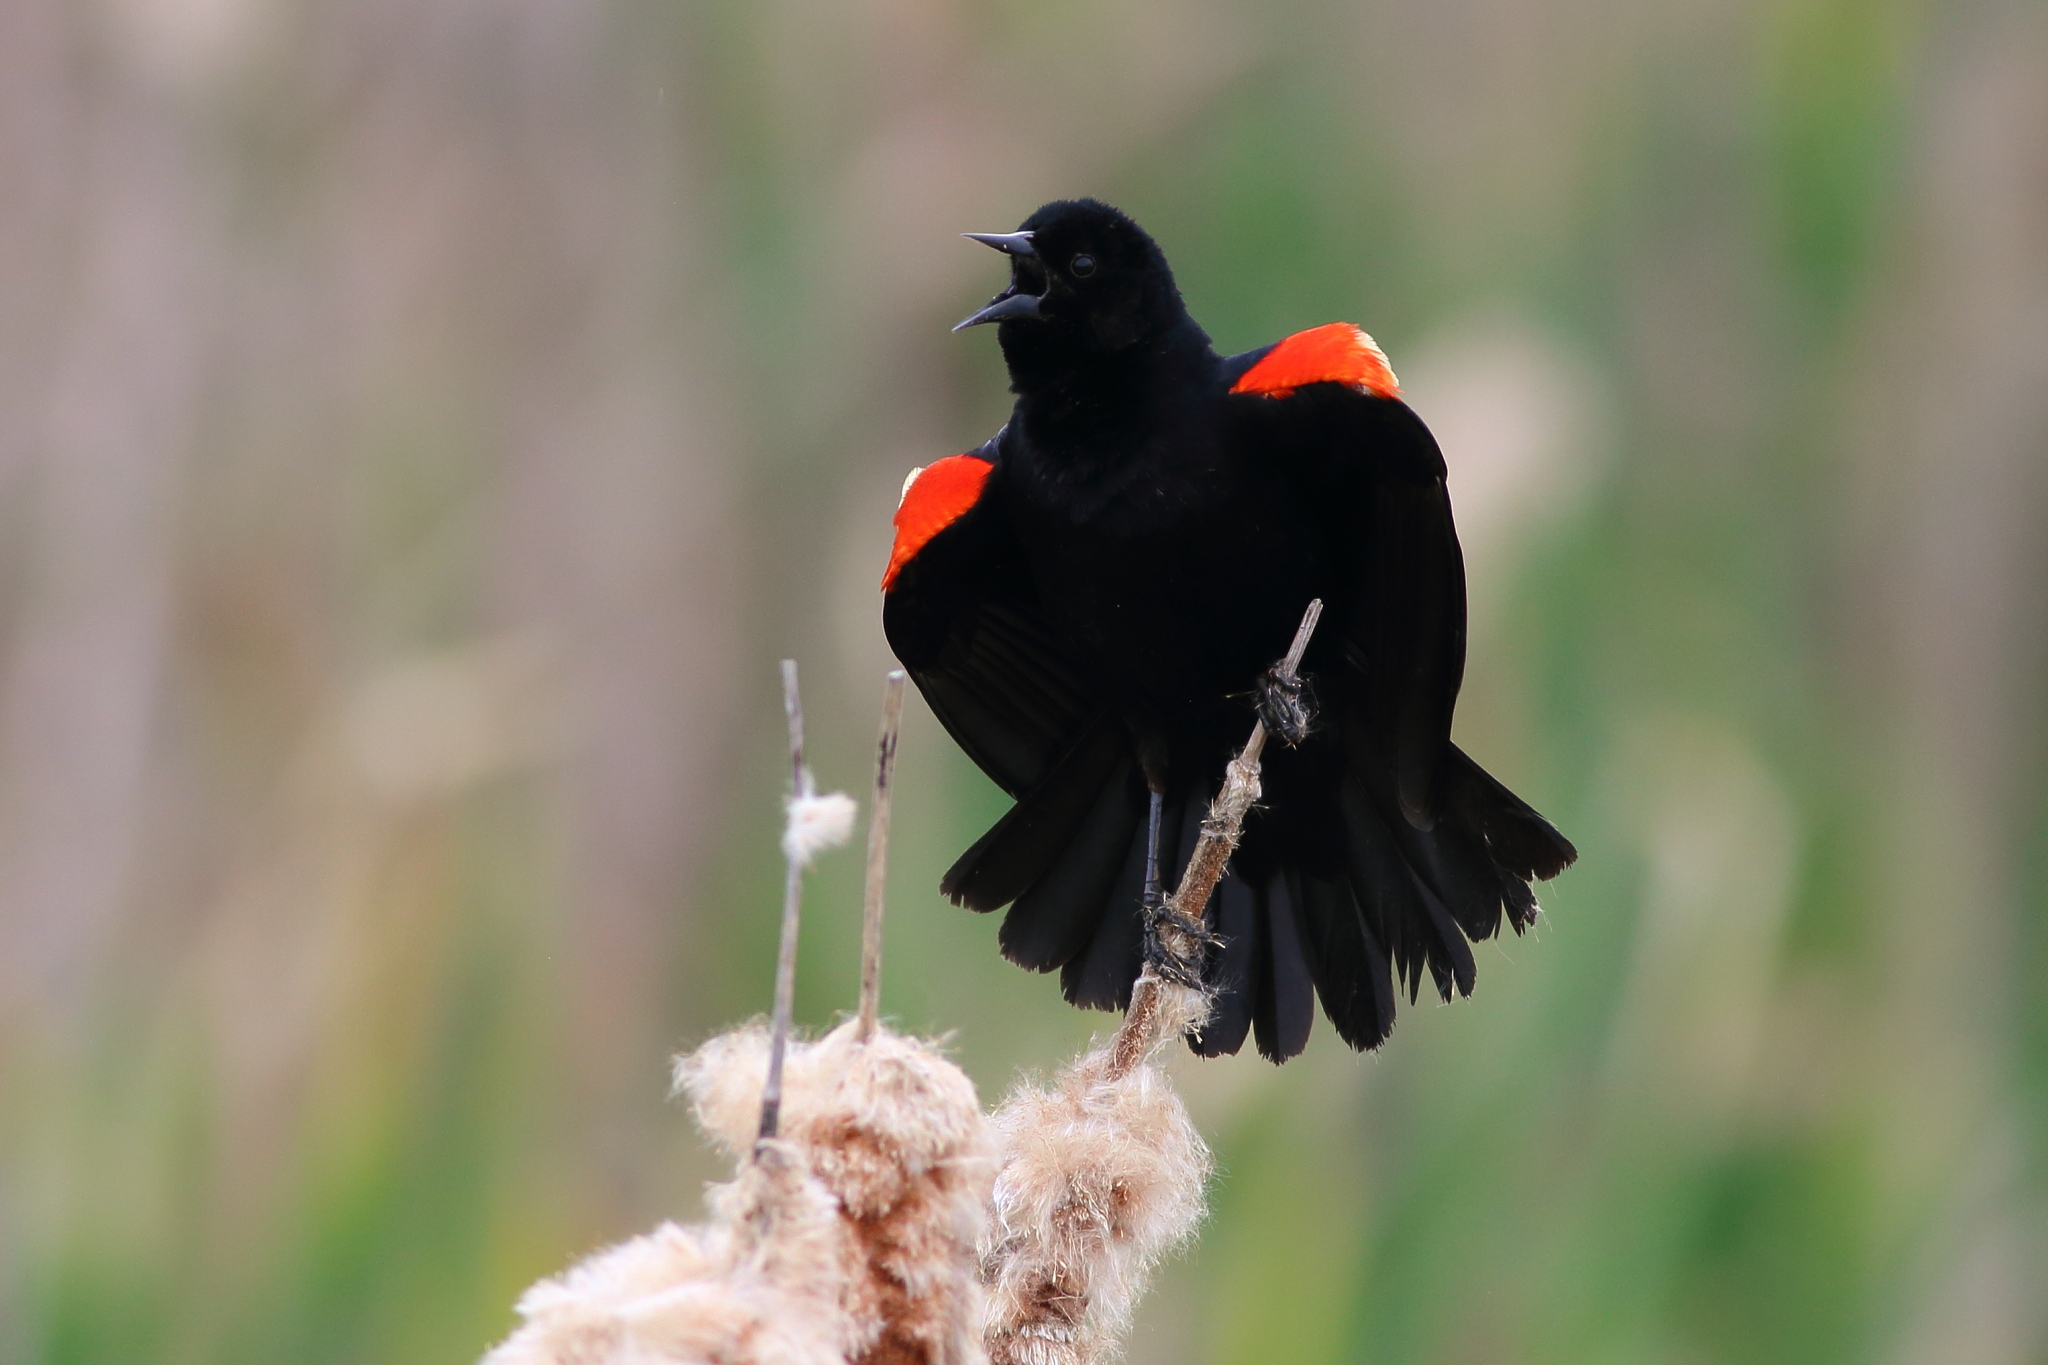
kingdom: Animalia
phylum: Chordata
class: Aves
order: Passeriformes
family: Icteridae
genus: Agelaius
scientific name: Agelaius phoeniceus
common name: Red-winged blackbird
